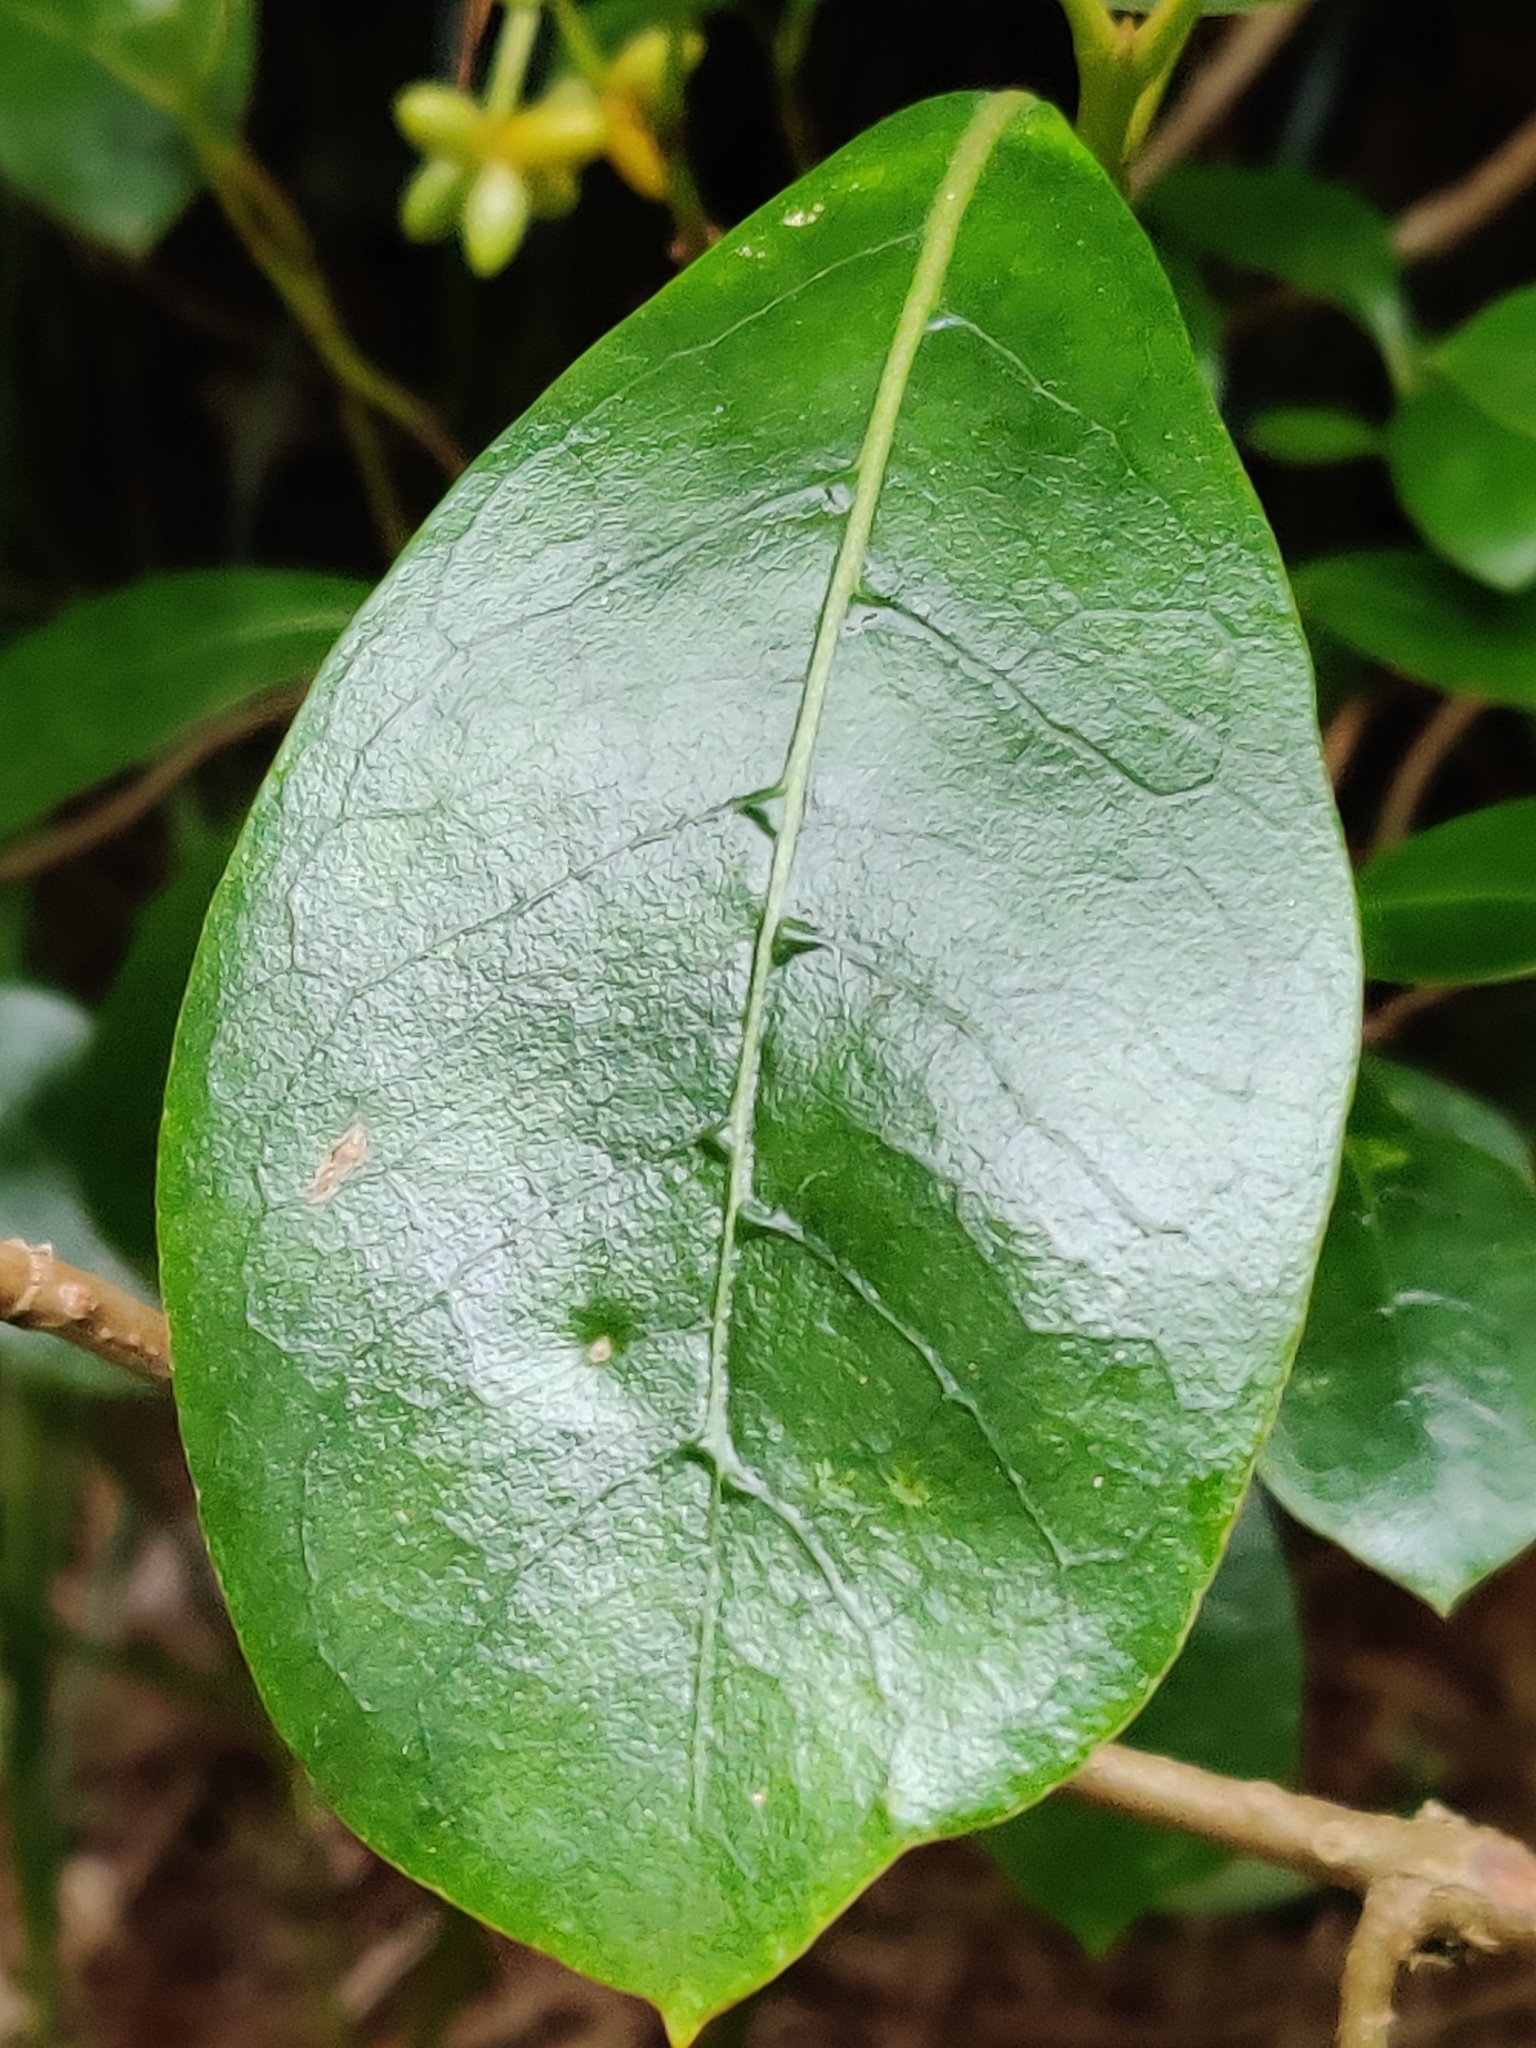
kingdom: Plantae
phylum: Tracheophyta
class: Magnoliopsida
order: Gentianales
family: Rubiaceae
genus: Coprosma
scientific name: Coprosma lucida
